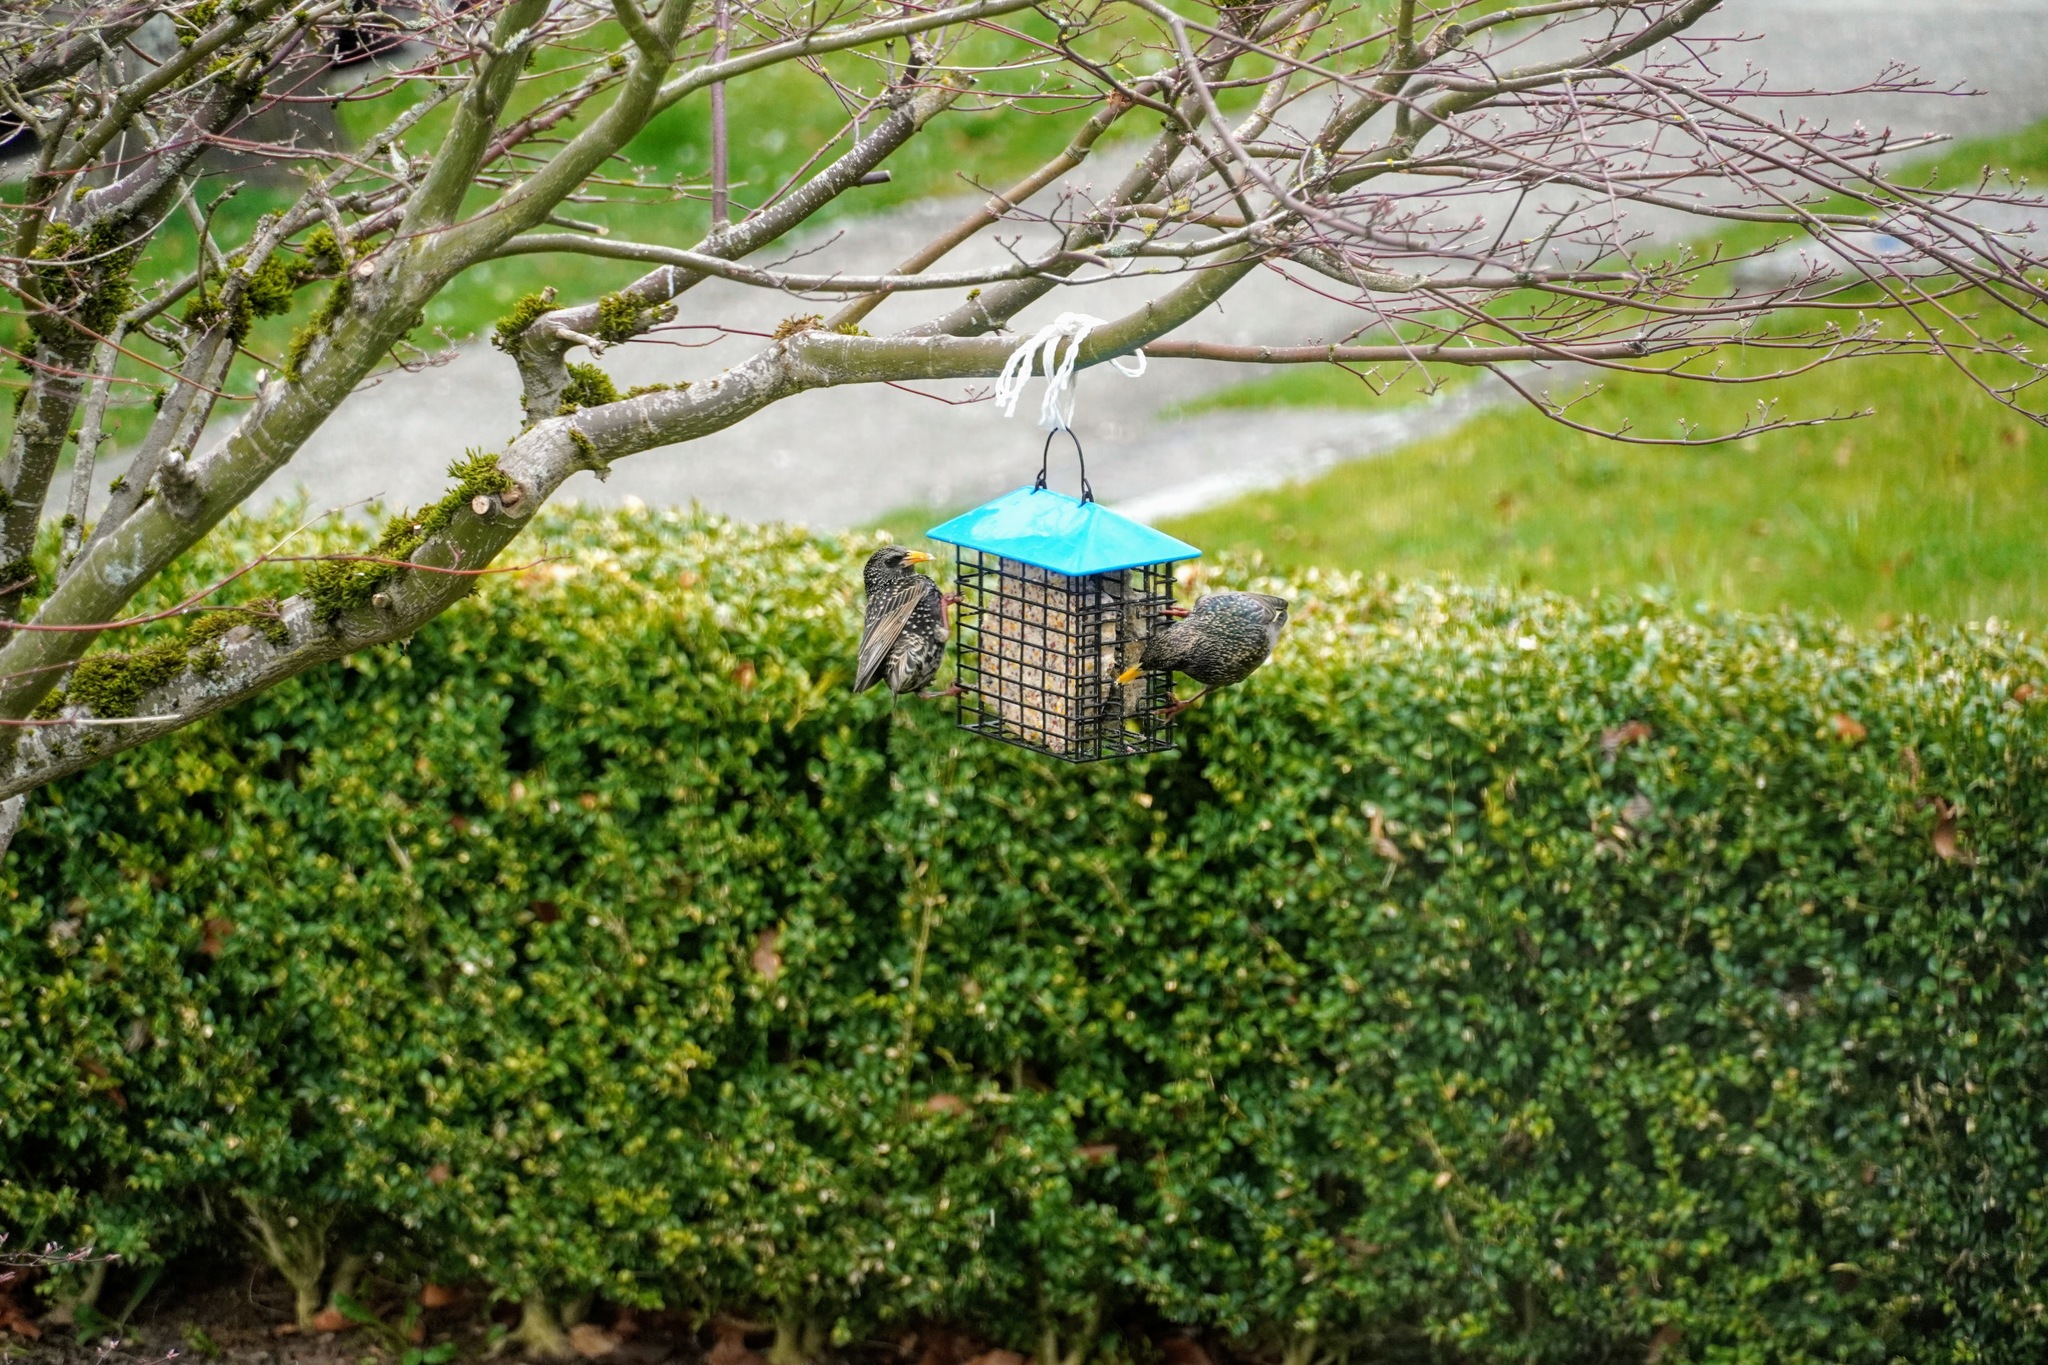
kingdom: Animalia
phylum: Chordata
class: Aves
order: Passeriformes
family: Sturnidae
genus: Sturnus
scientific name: Sturnus vulgaris
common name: Common starling
